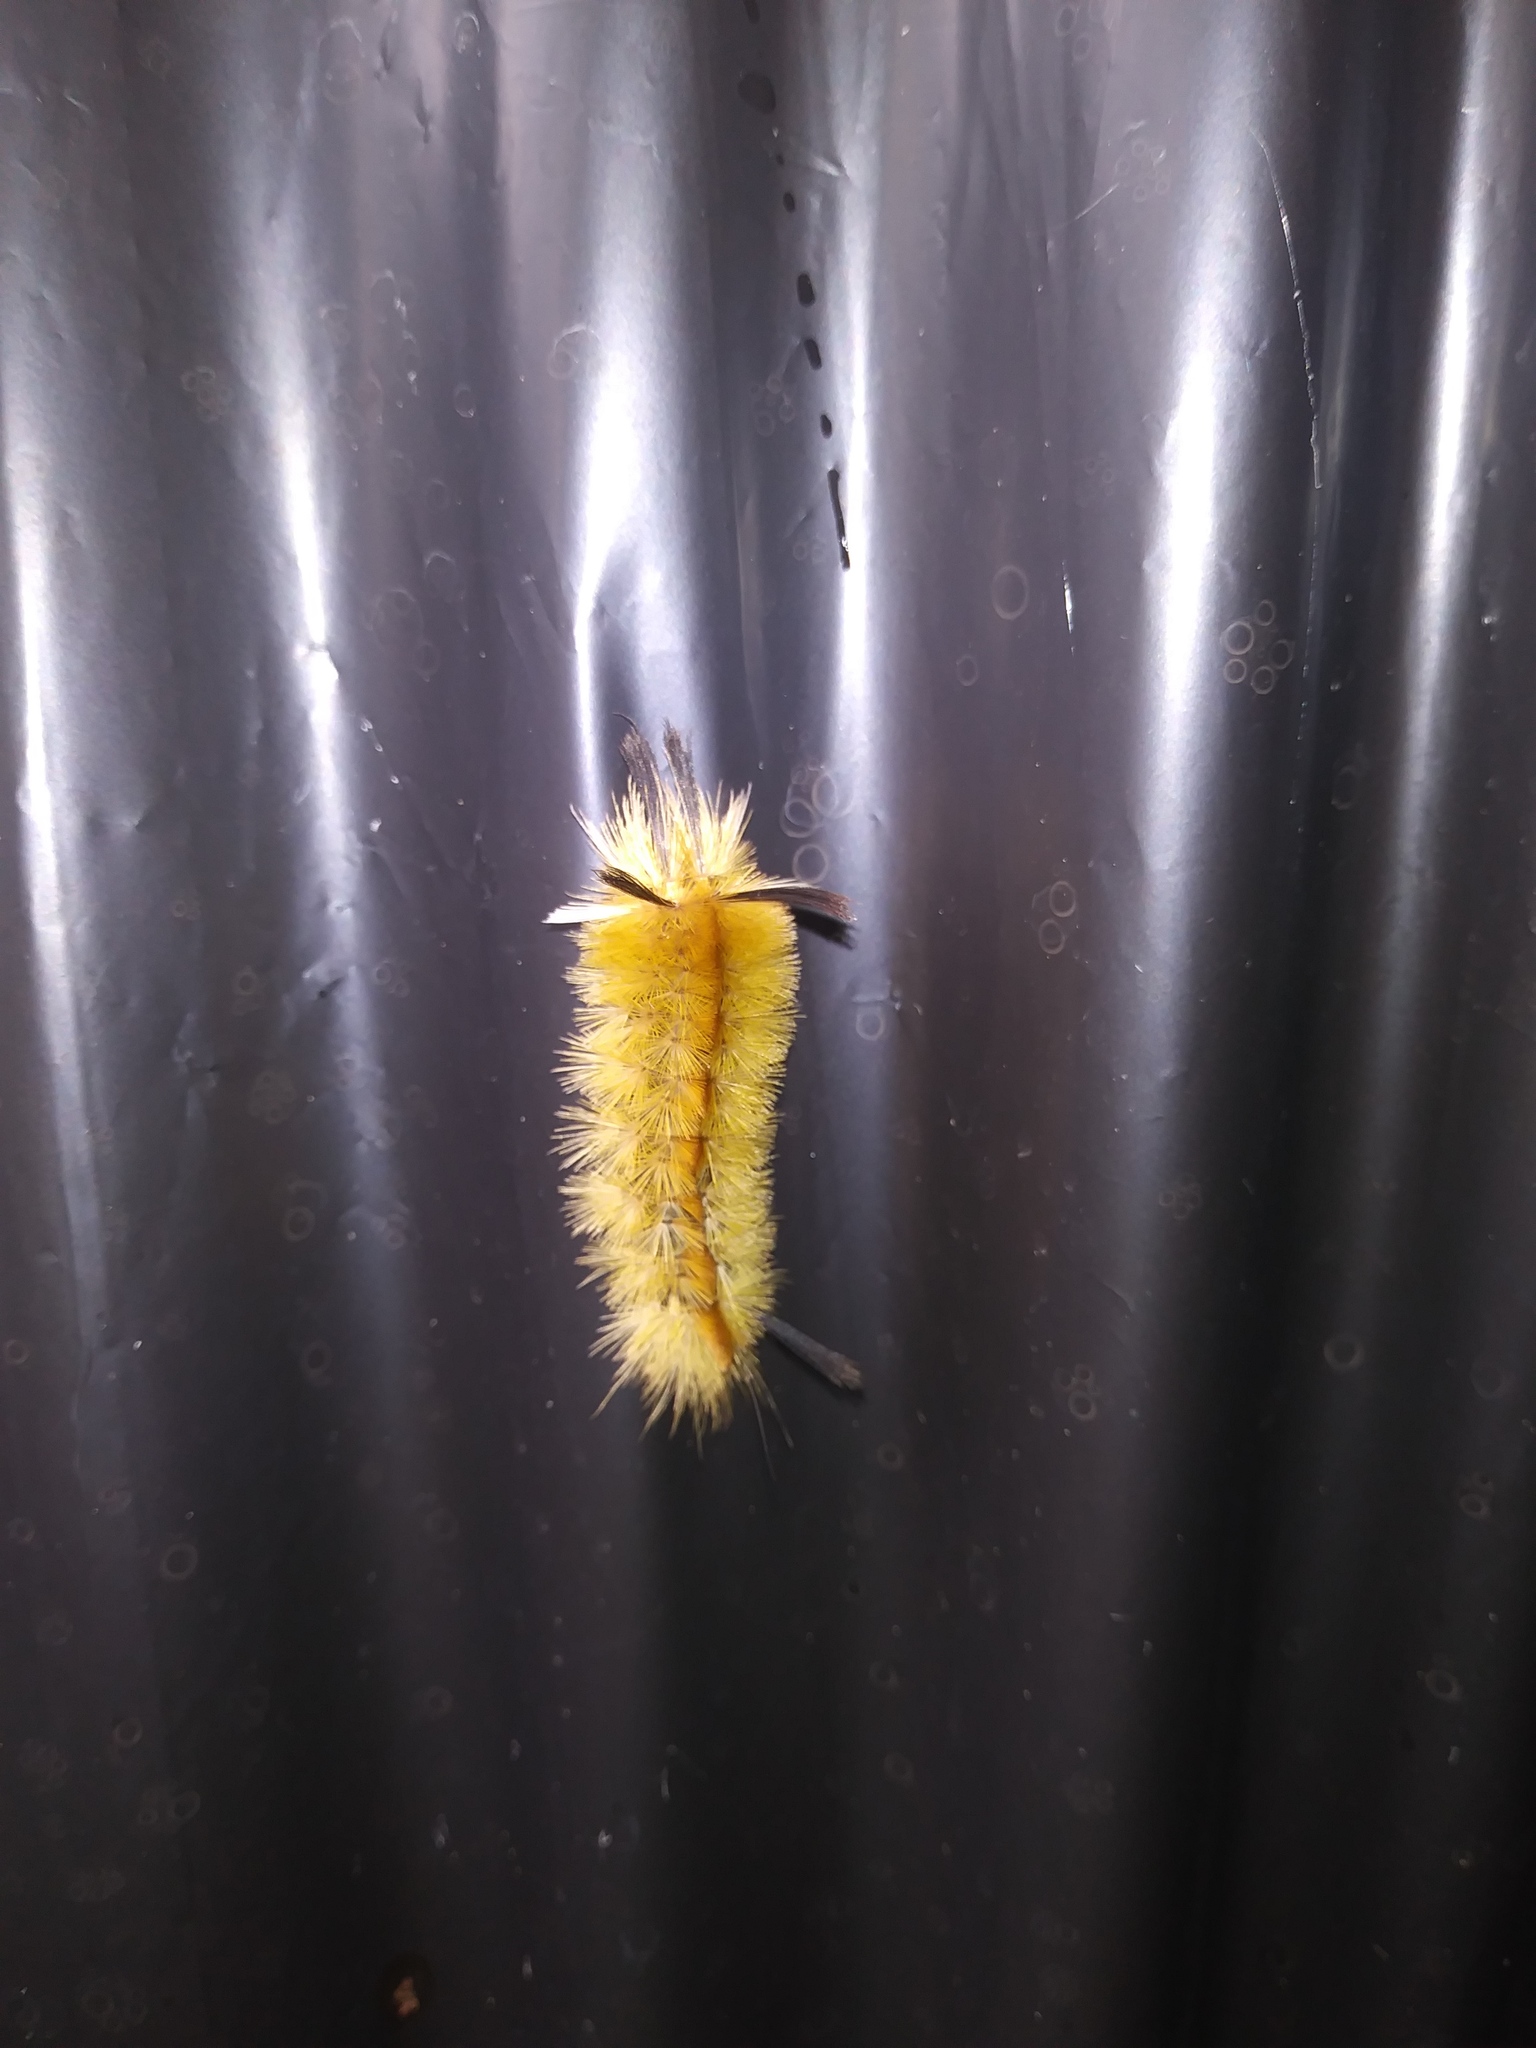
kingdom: Animalia
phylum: Arthropoda
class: Insecta
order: Lepidoptera
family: Erebidae
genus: Halysidota
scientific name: Halysidota tessellaris
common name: Banded tussock moth
